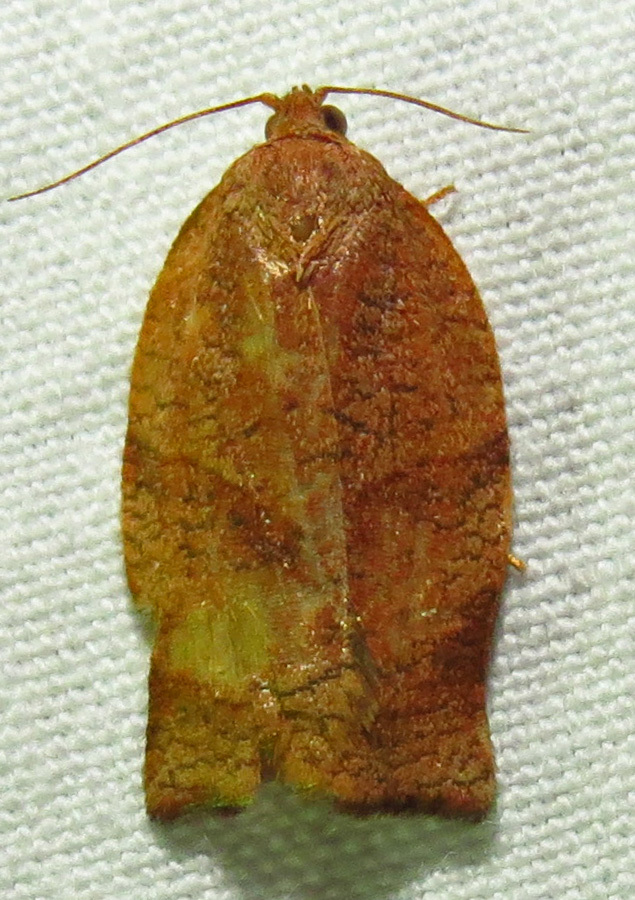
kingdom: Animalia
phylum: Arthropoda
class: Insecta
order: Lepidoptera
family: Tortricidae
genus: Choristoneura
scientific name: Choristoneura rosaceana
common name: Oblique-banded leafroller moth
